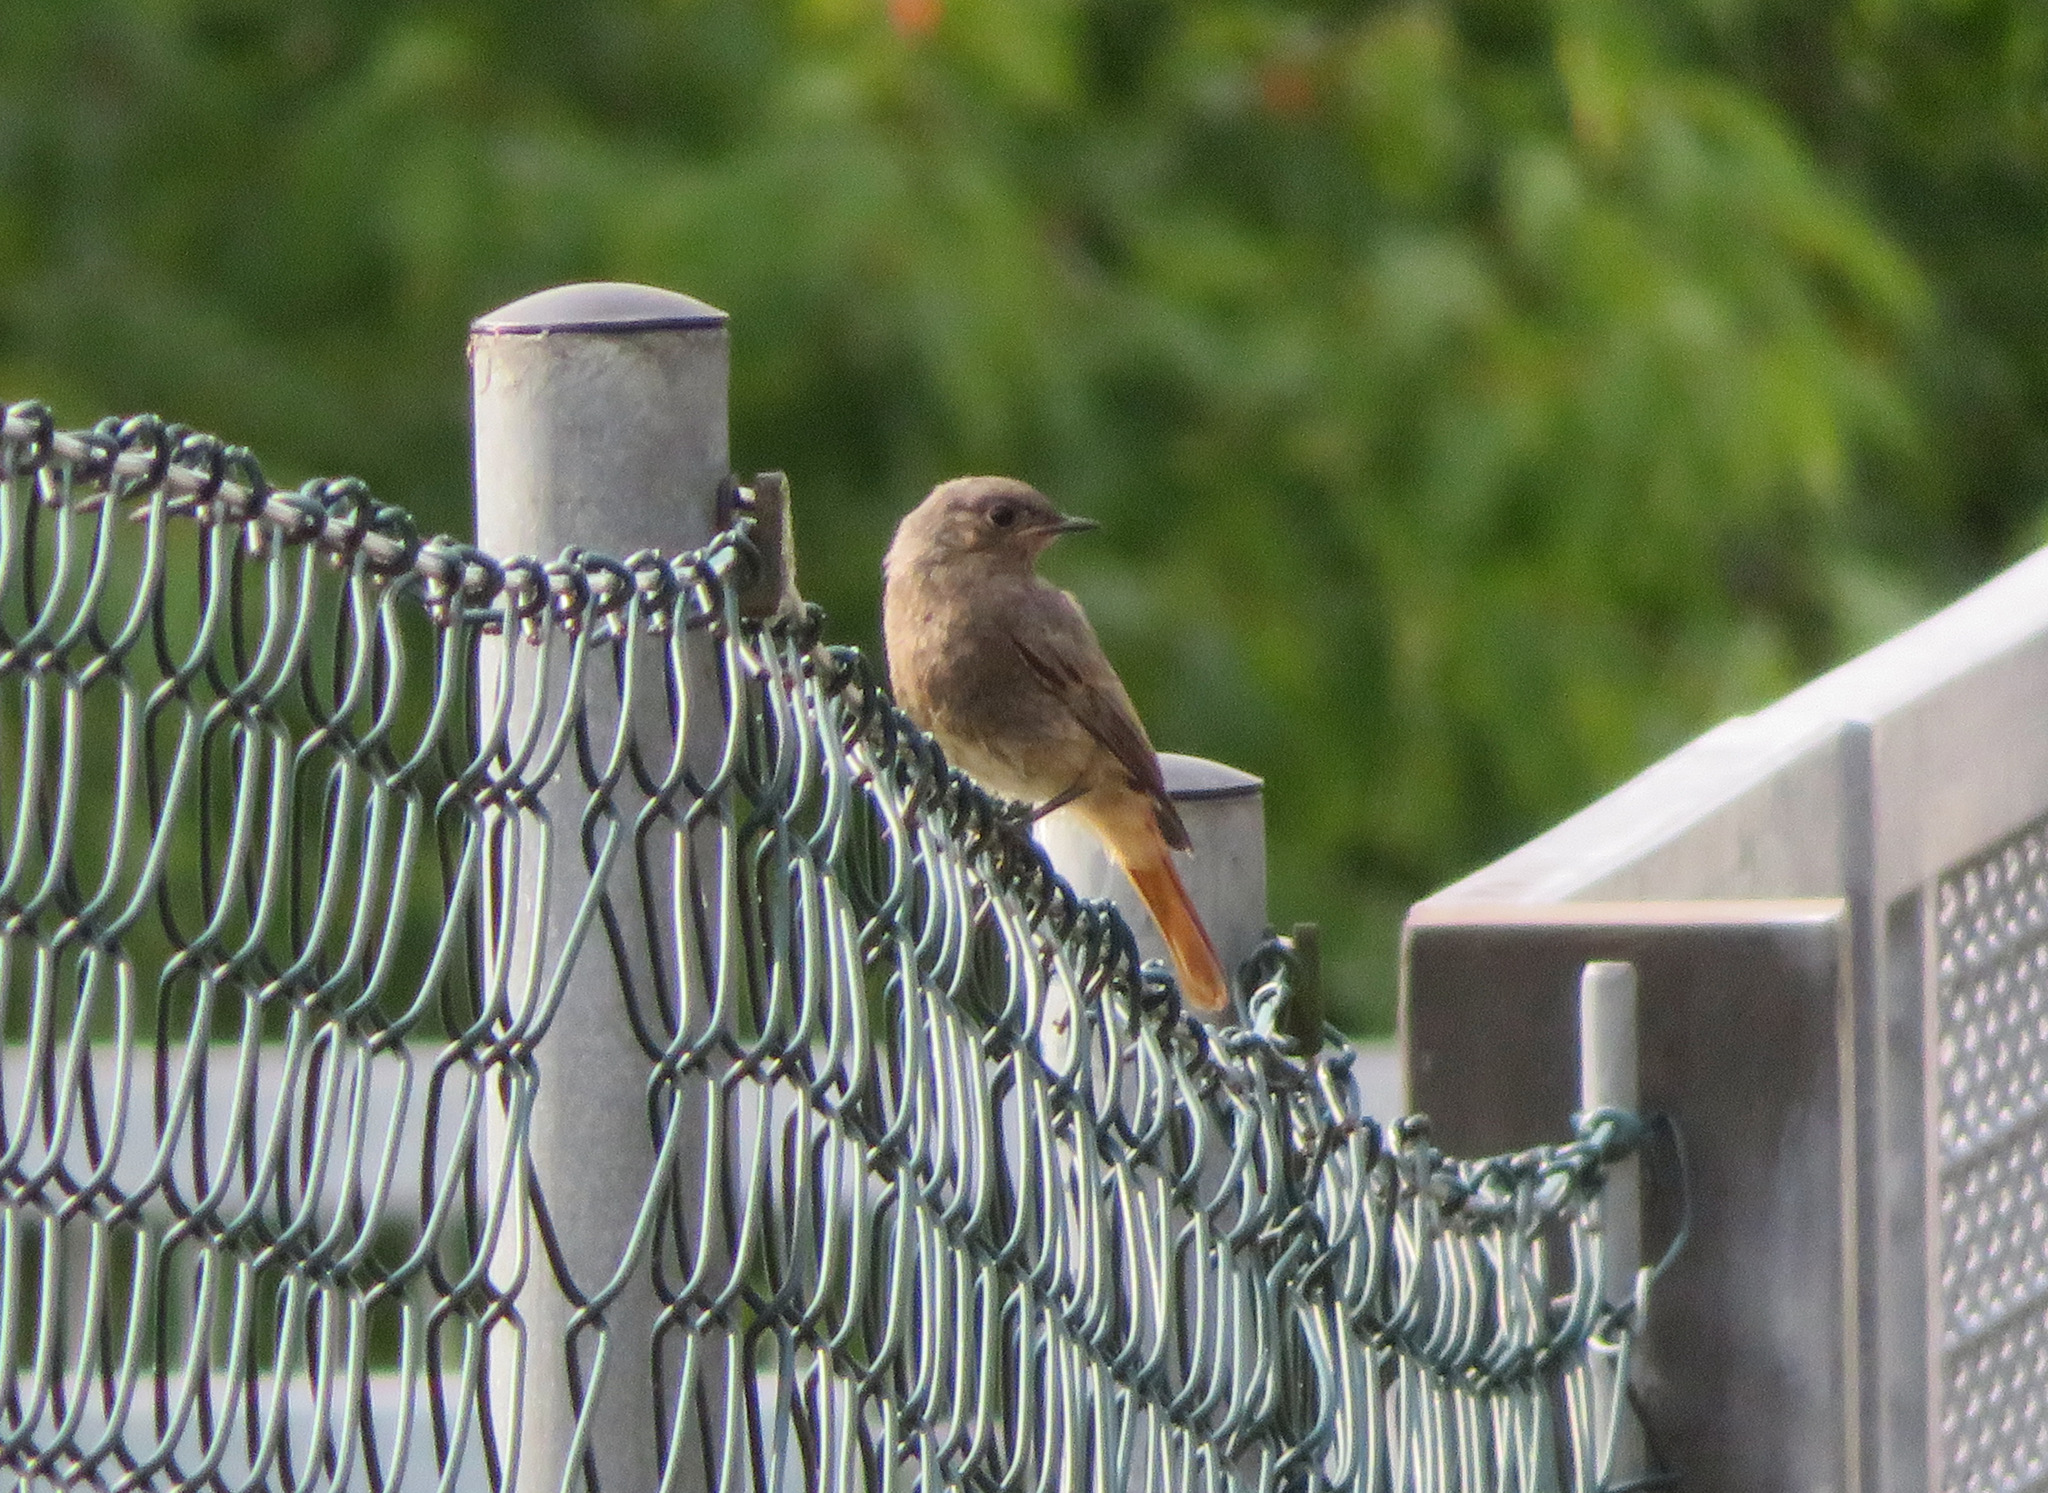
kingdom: Animalia
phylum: Chordata
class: Aves
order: Passeriformes
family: Muscicapidae
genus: Phoenicurus
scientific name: Phoenicurus ochruros
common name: Black redstart
